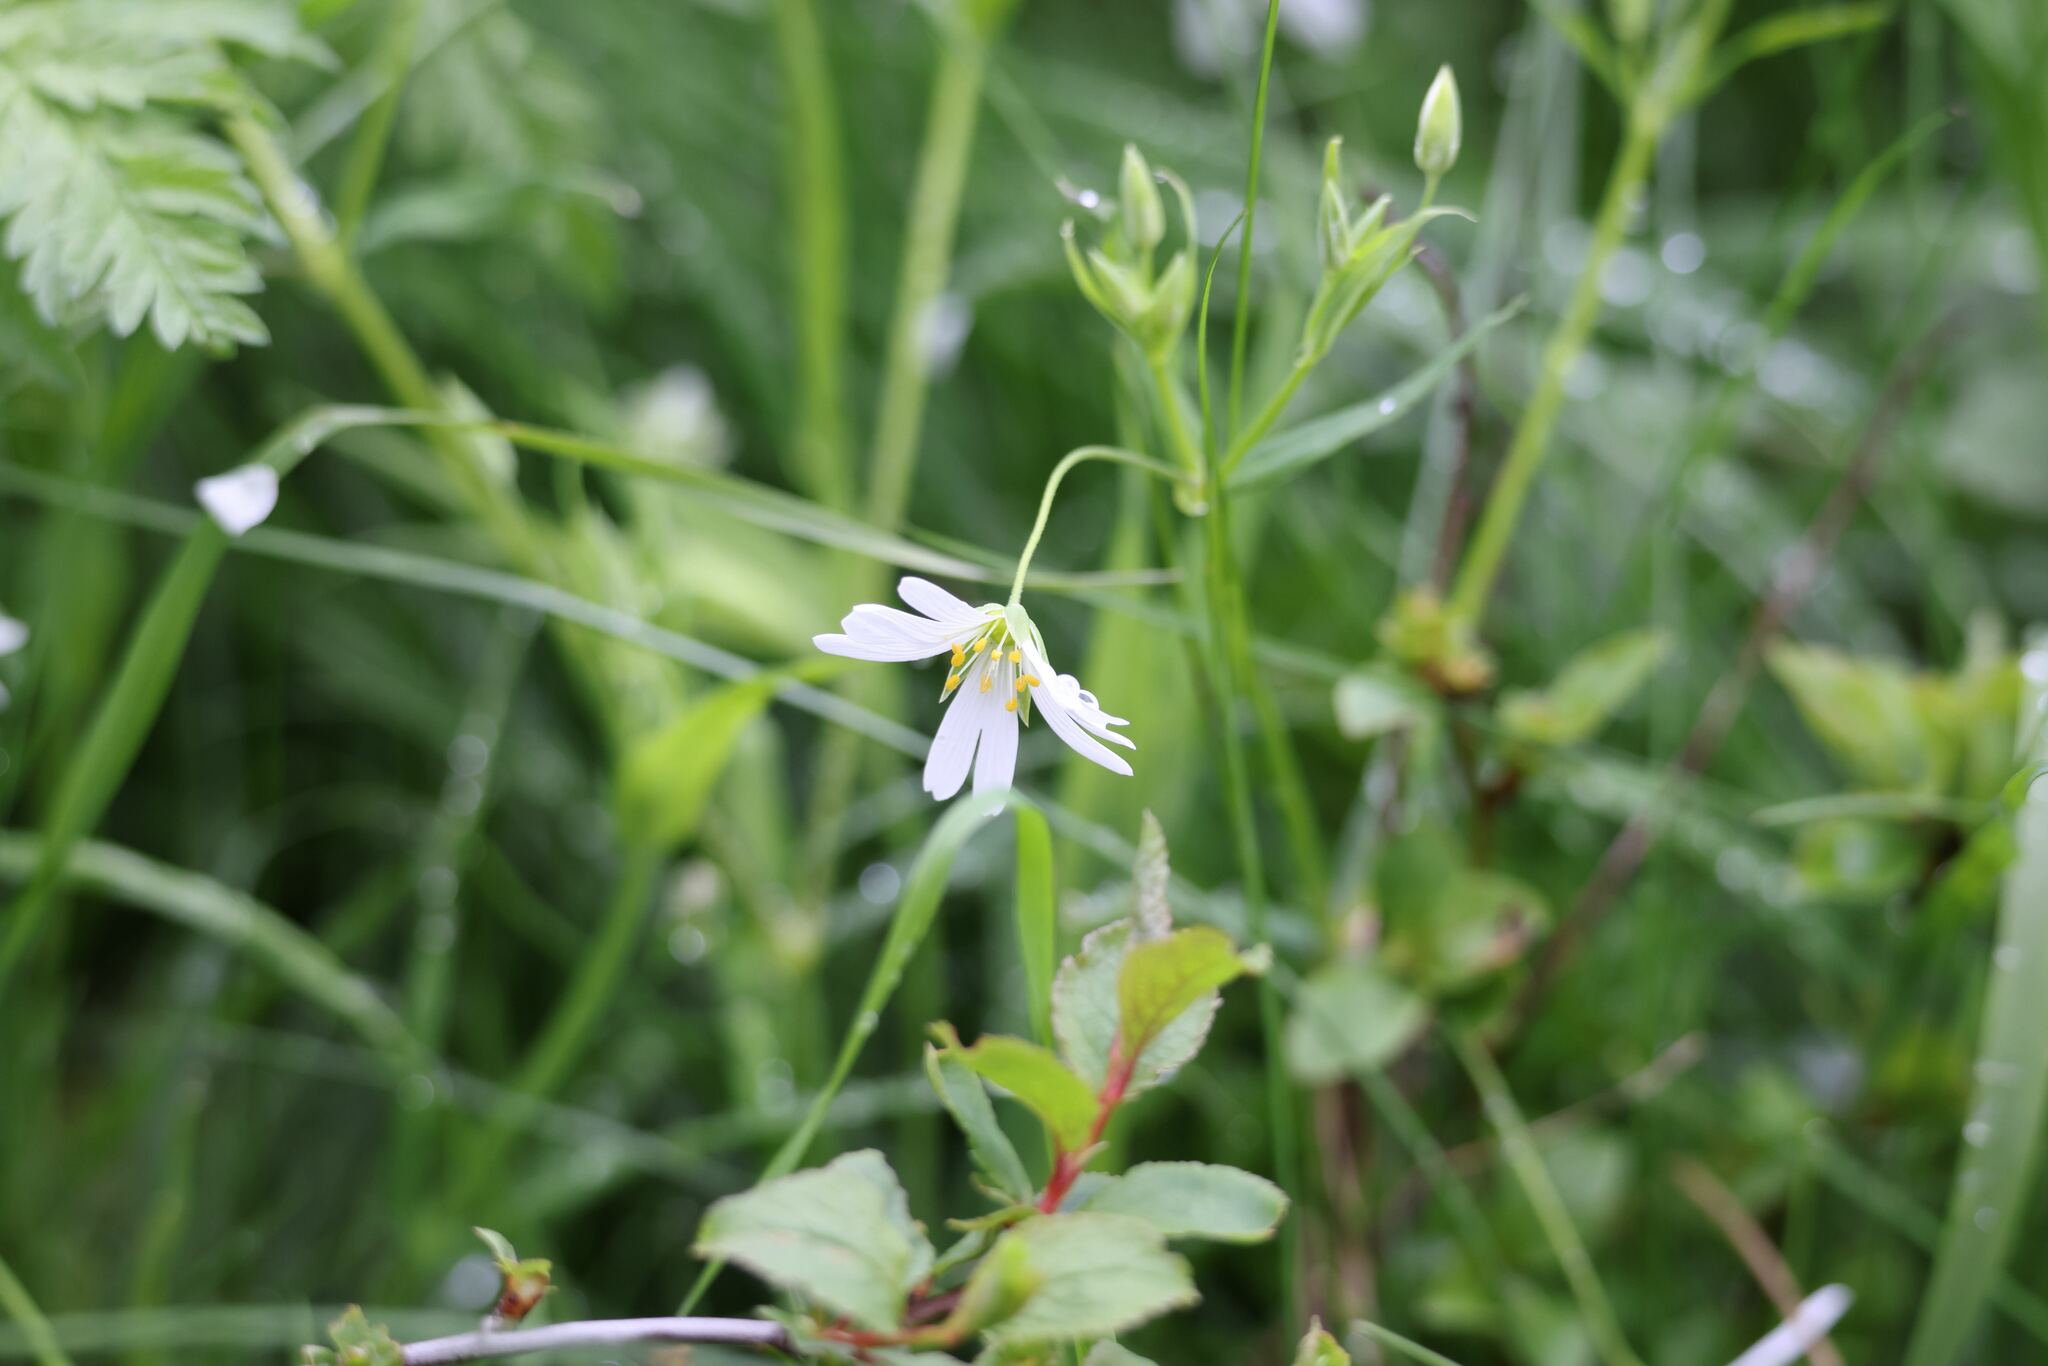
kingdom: Plantae
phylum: Tracheophyta
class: Magnoliopsida
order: Caryophyllales
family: Caryophyllaceae
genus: Rabelera
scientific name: Rabelera holostea
